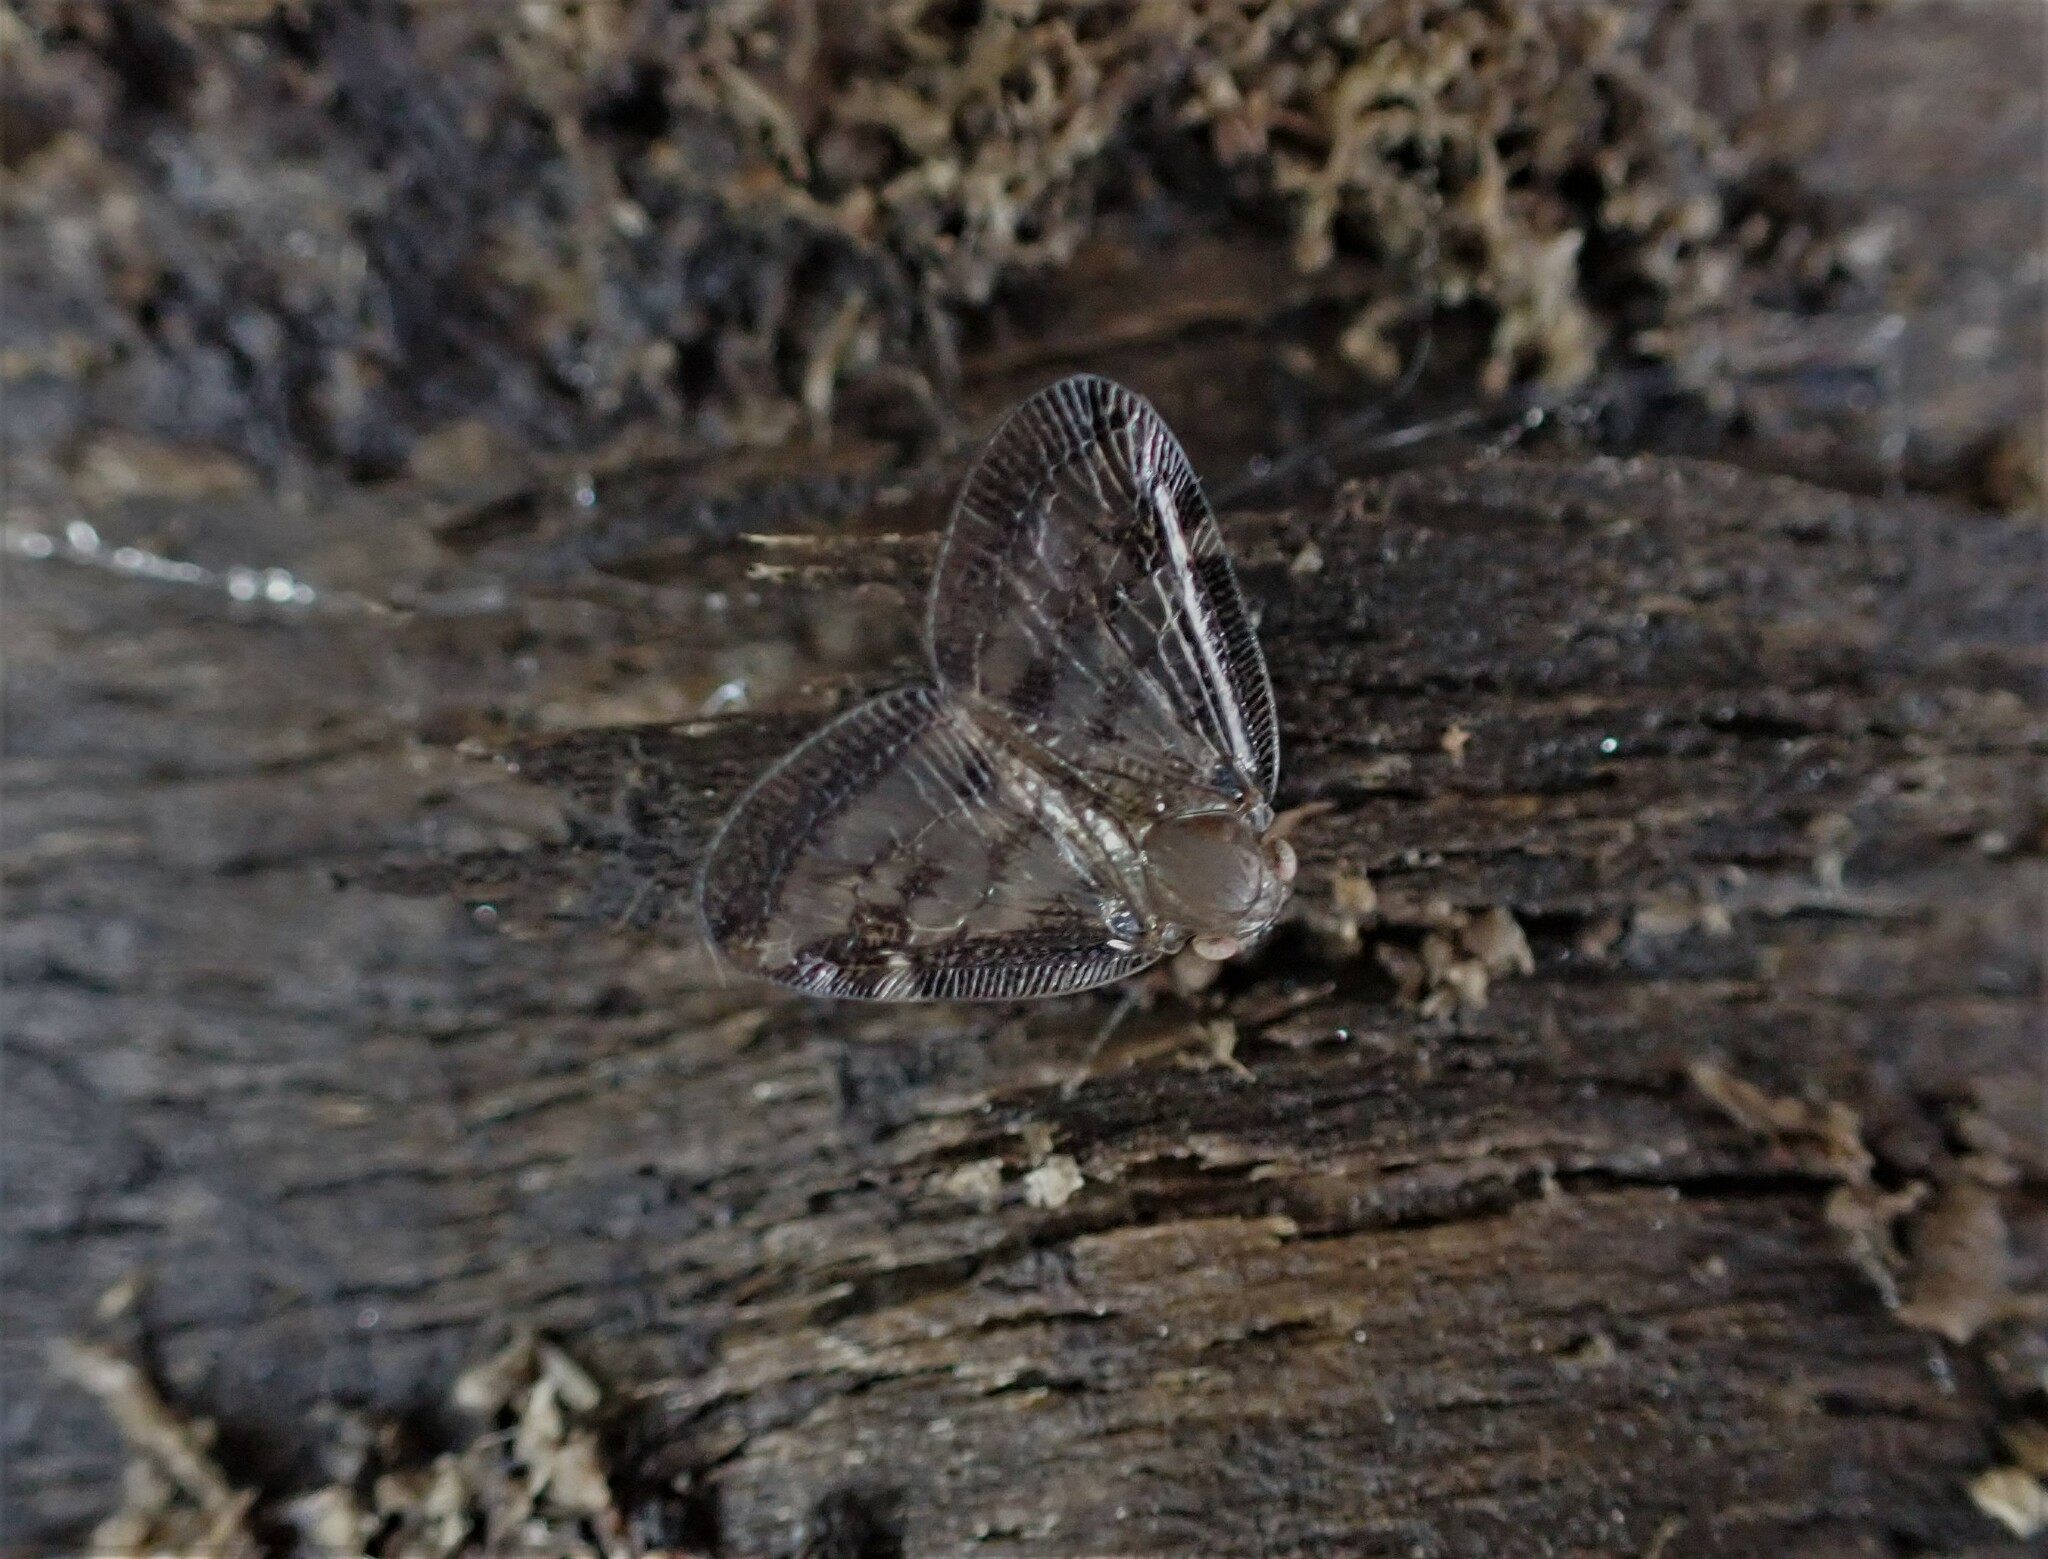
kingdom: Animalia
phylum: Arthropoda
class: Insecta
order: Hemiptera
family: Ricaniidae
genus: Scolypopa
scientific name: Scolypopa australis
